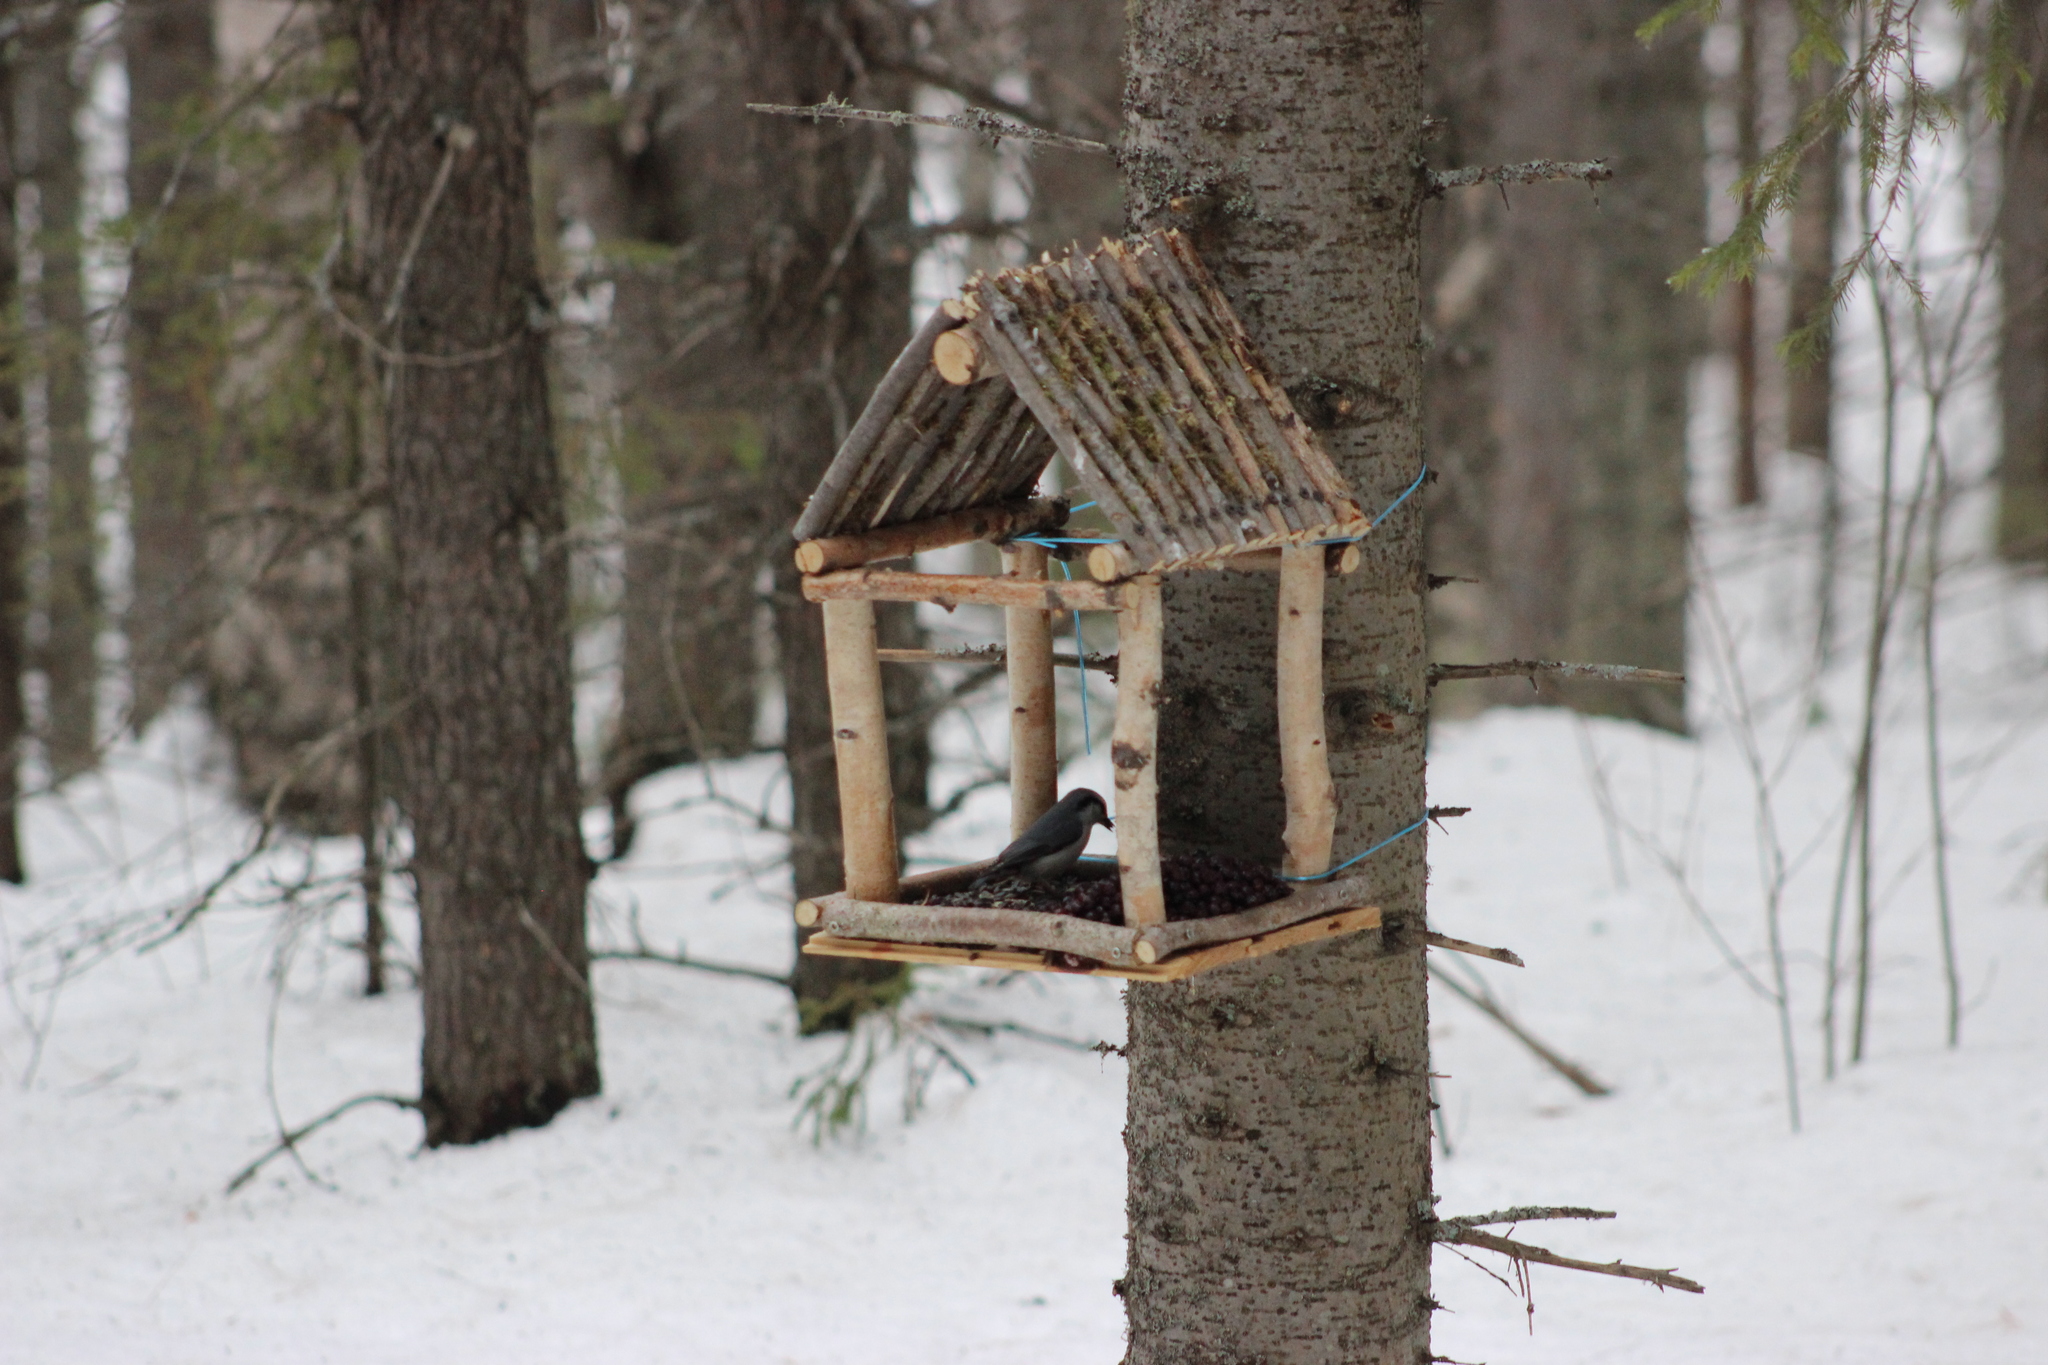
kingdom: Animalia
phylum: Chordata
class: Aves
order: Passeriformes
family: Sittidae
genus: Sitta
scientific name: Sitta europaea
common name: Eurasian nuthatch
